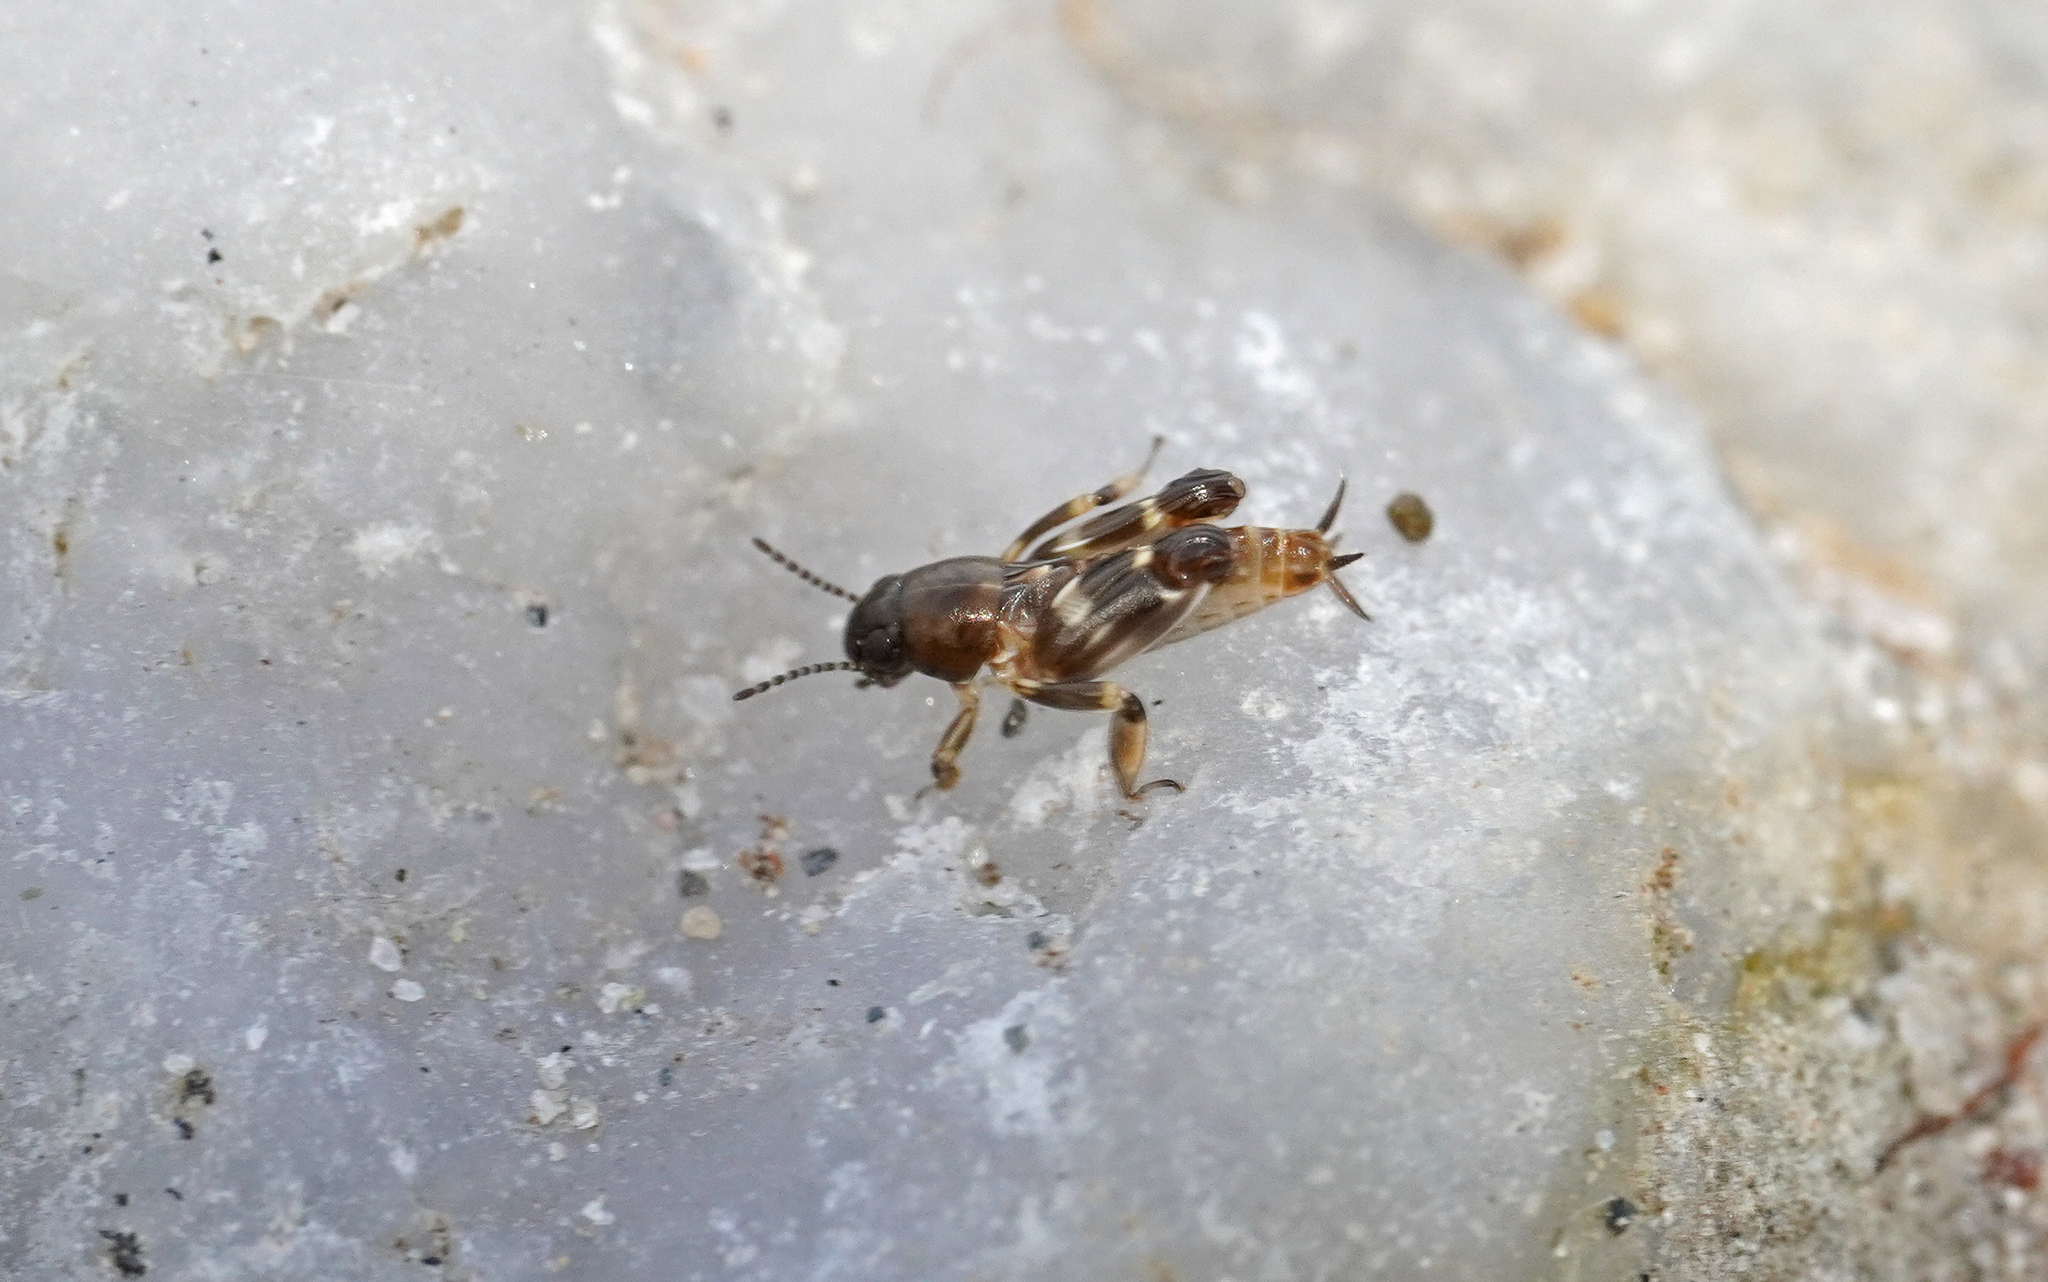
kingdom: Animalia
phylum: Arthropoda
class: Insecta
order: Orthoptera
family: Tridactylidae
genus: Xya
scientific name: Xya pfaendleri
